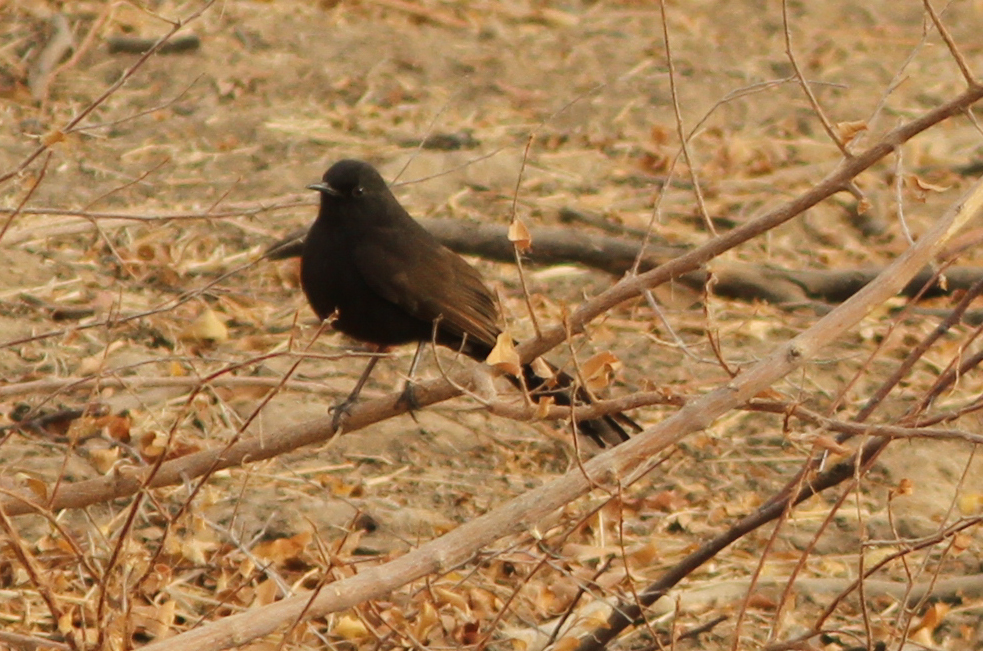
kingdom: Animalia
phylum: Chordata
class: Aves
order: Passeriformes
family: Muscicapidae
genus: Cercotrichas
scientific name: Cercotrichas podobe
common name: Black scrub robin
